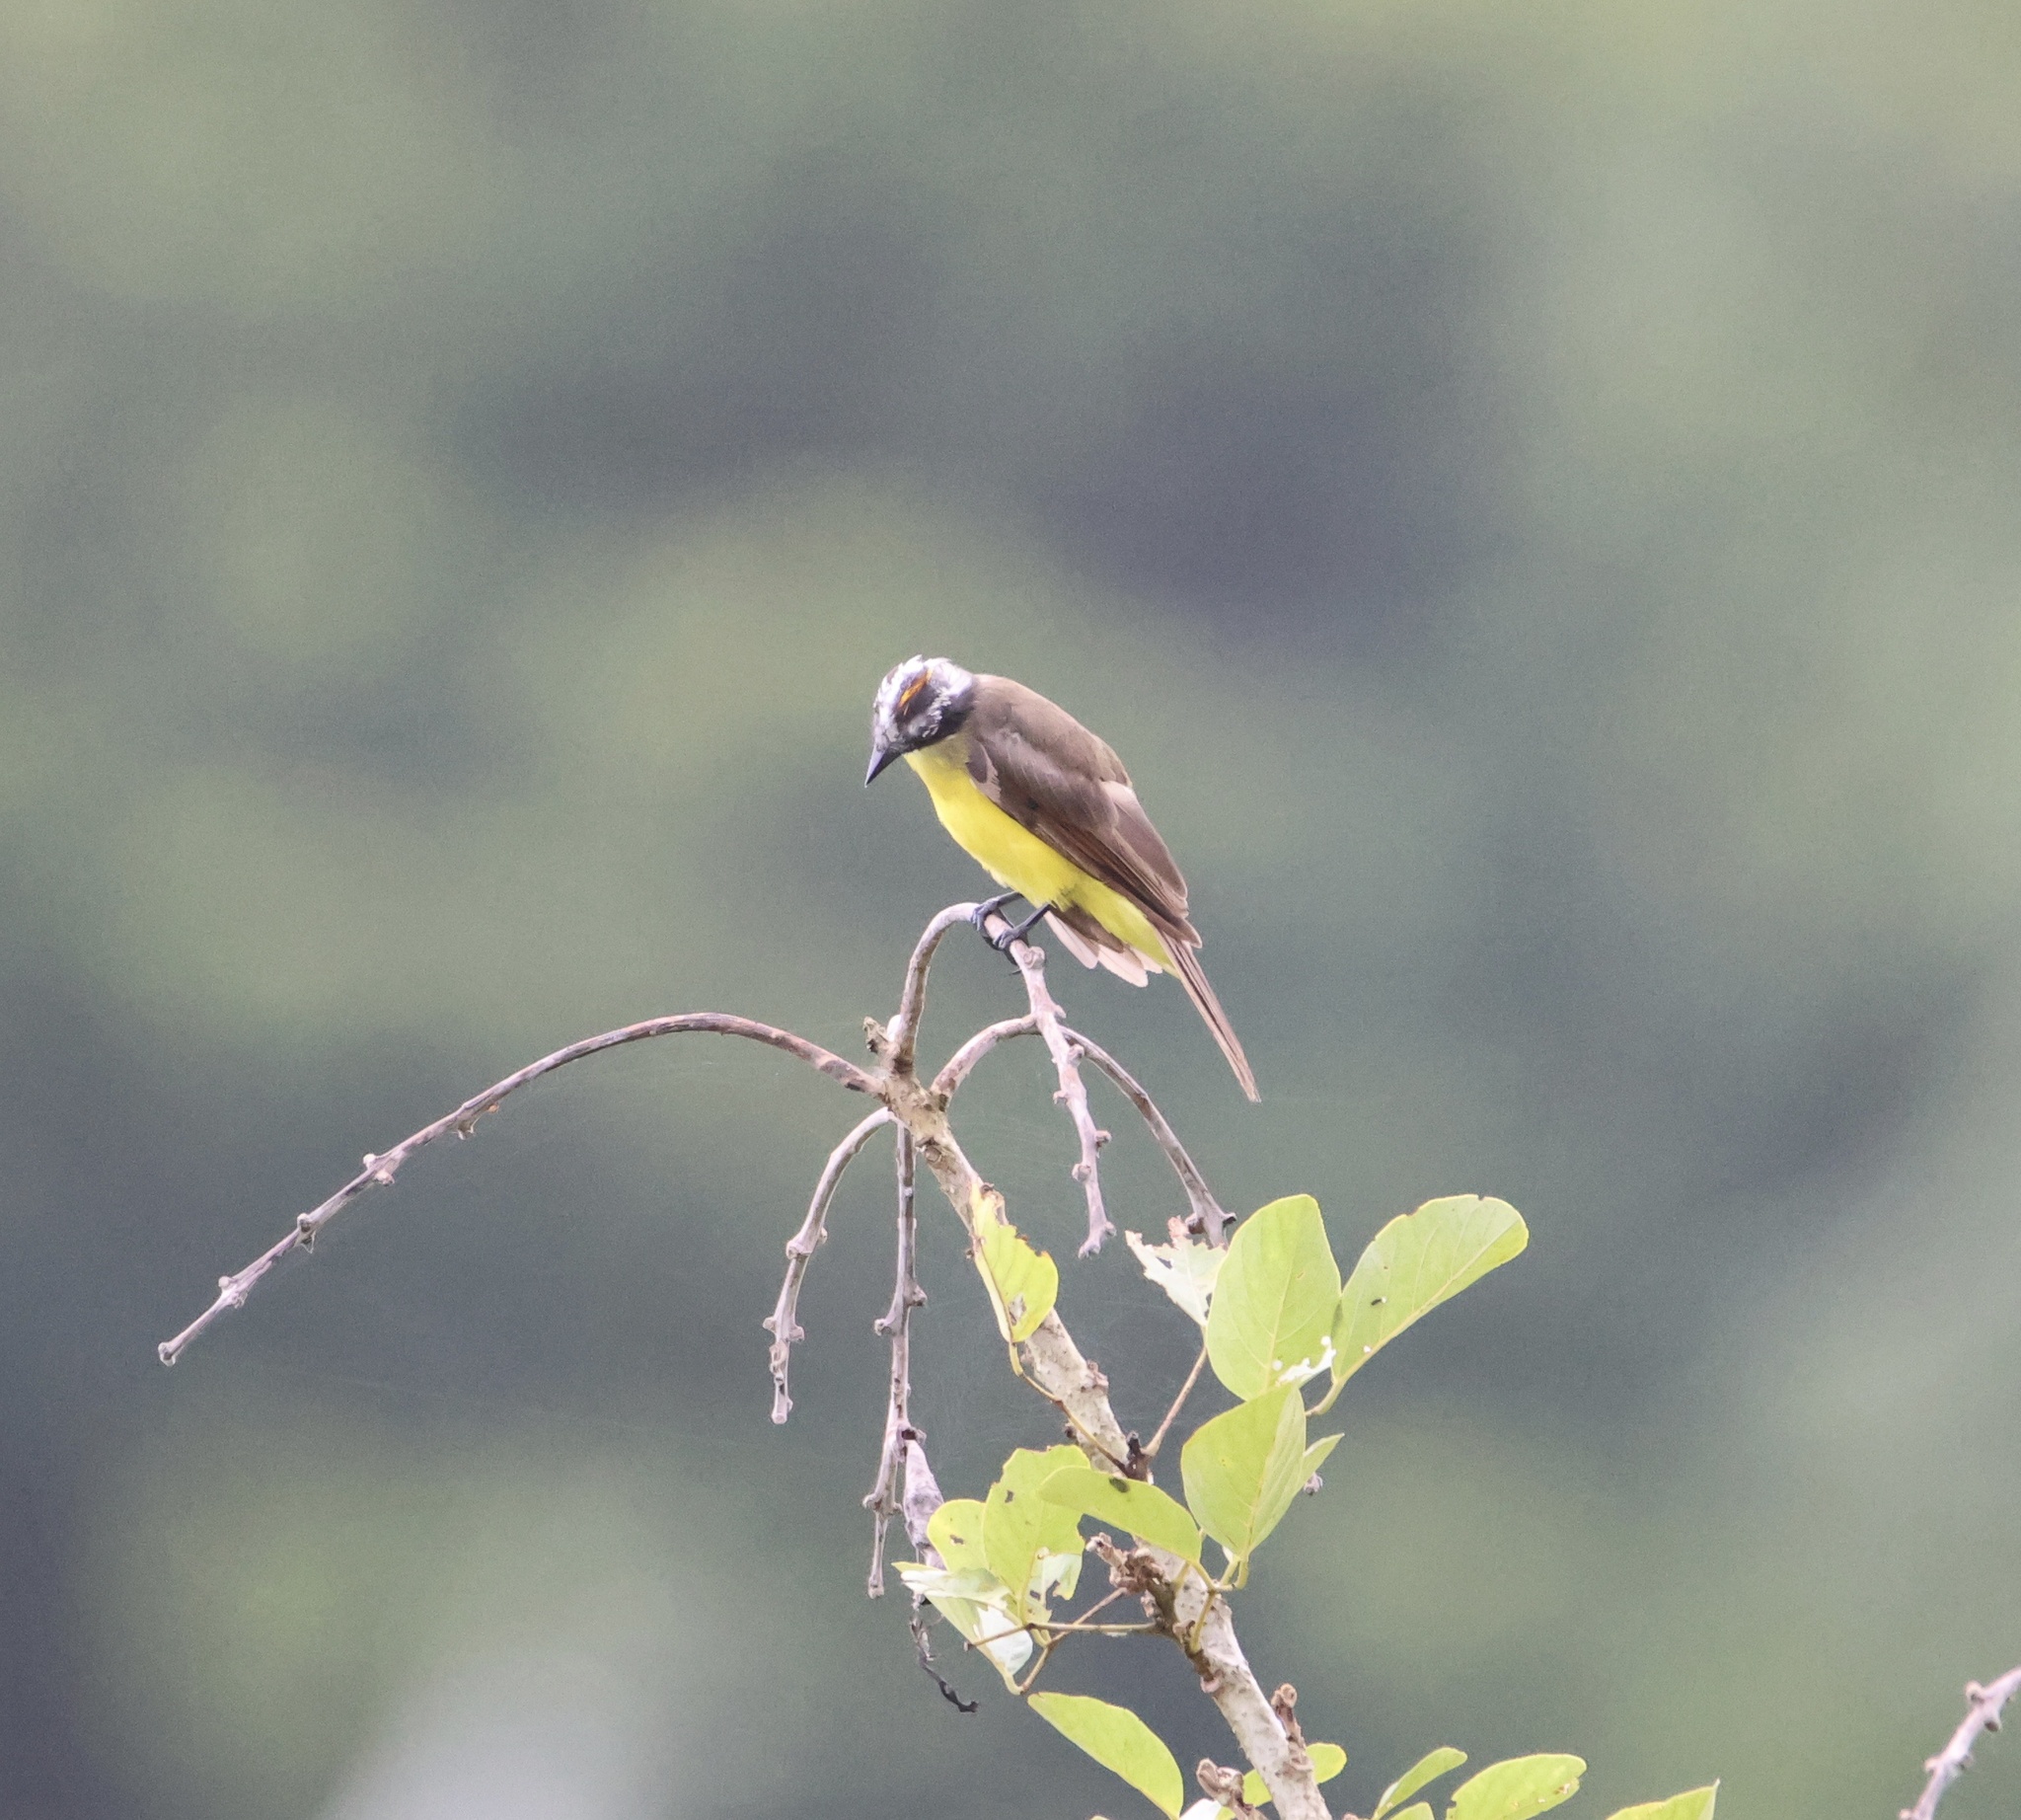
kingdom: Animalia
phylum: Chordata
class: Aves
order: Passeriformes
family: Tyrannidae
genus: Myiozetetes
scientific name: Myiozetetes cayanensis
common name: Rusty-margined flycatcher
